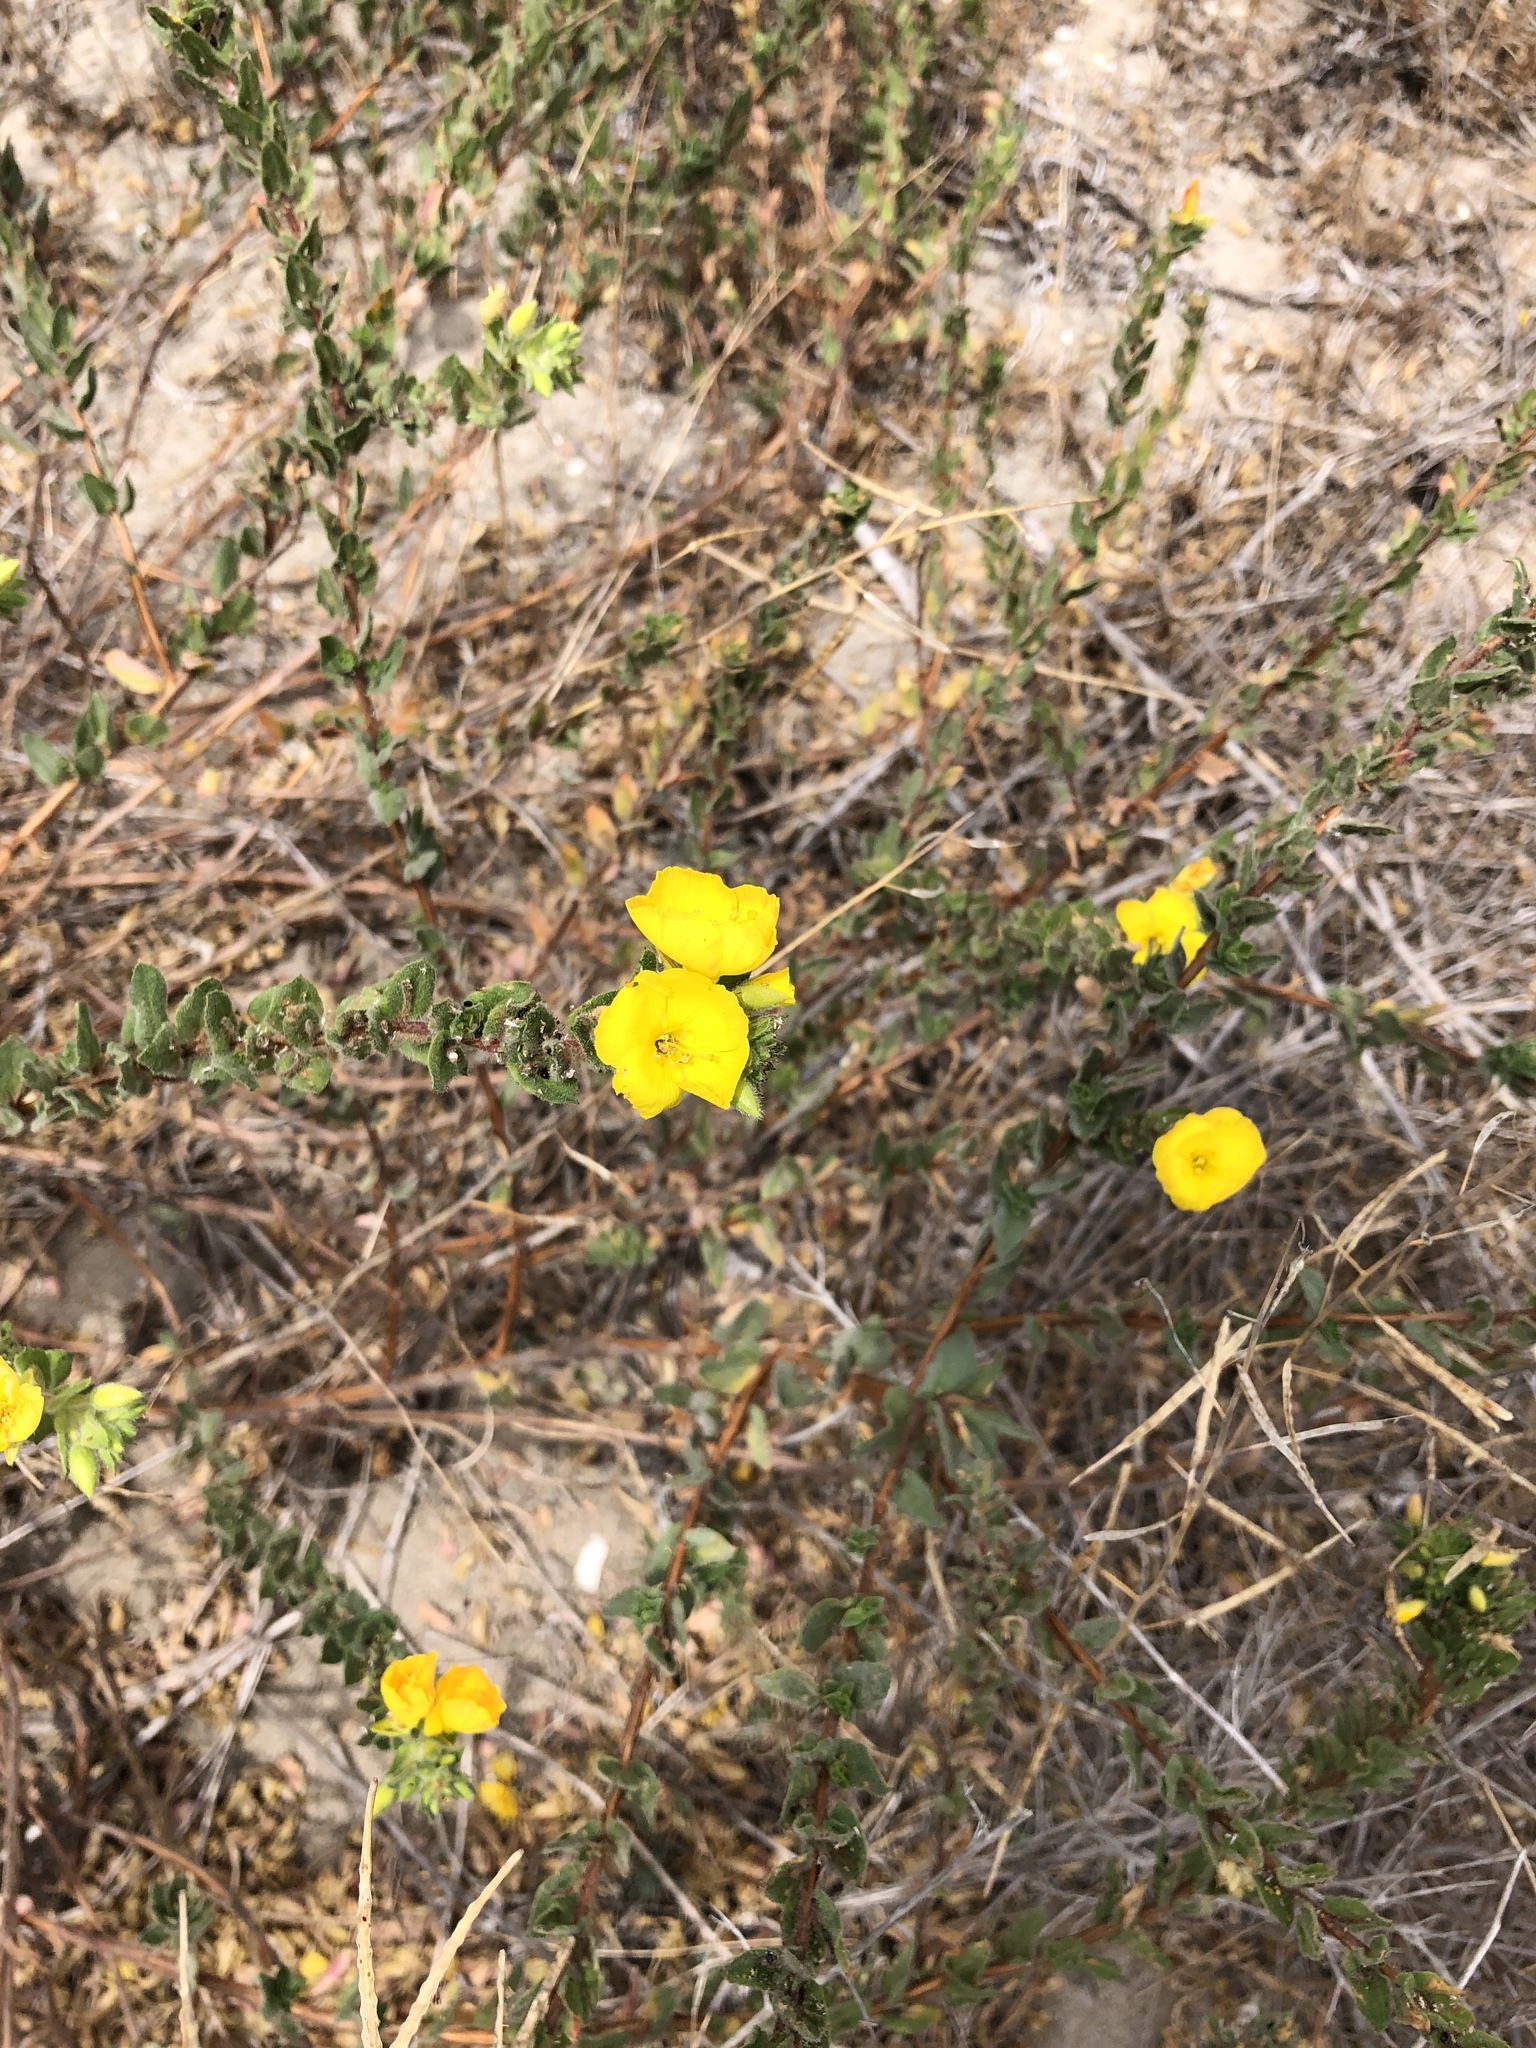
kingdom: Plantae
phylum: Tracheophyta
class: Magnoliopsida
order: Myrtales
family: Onagraceae
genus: Camissoniopsis
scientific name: Camissoniopsis cheiranthifolia
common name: Beach suncup
